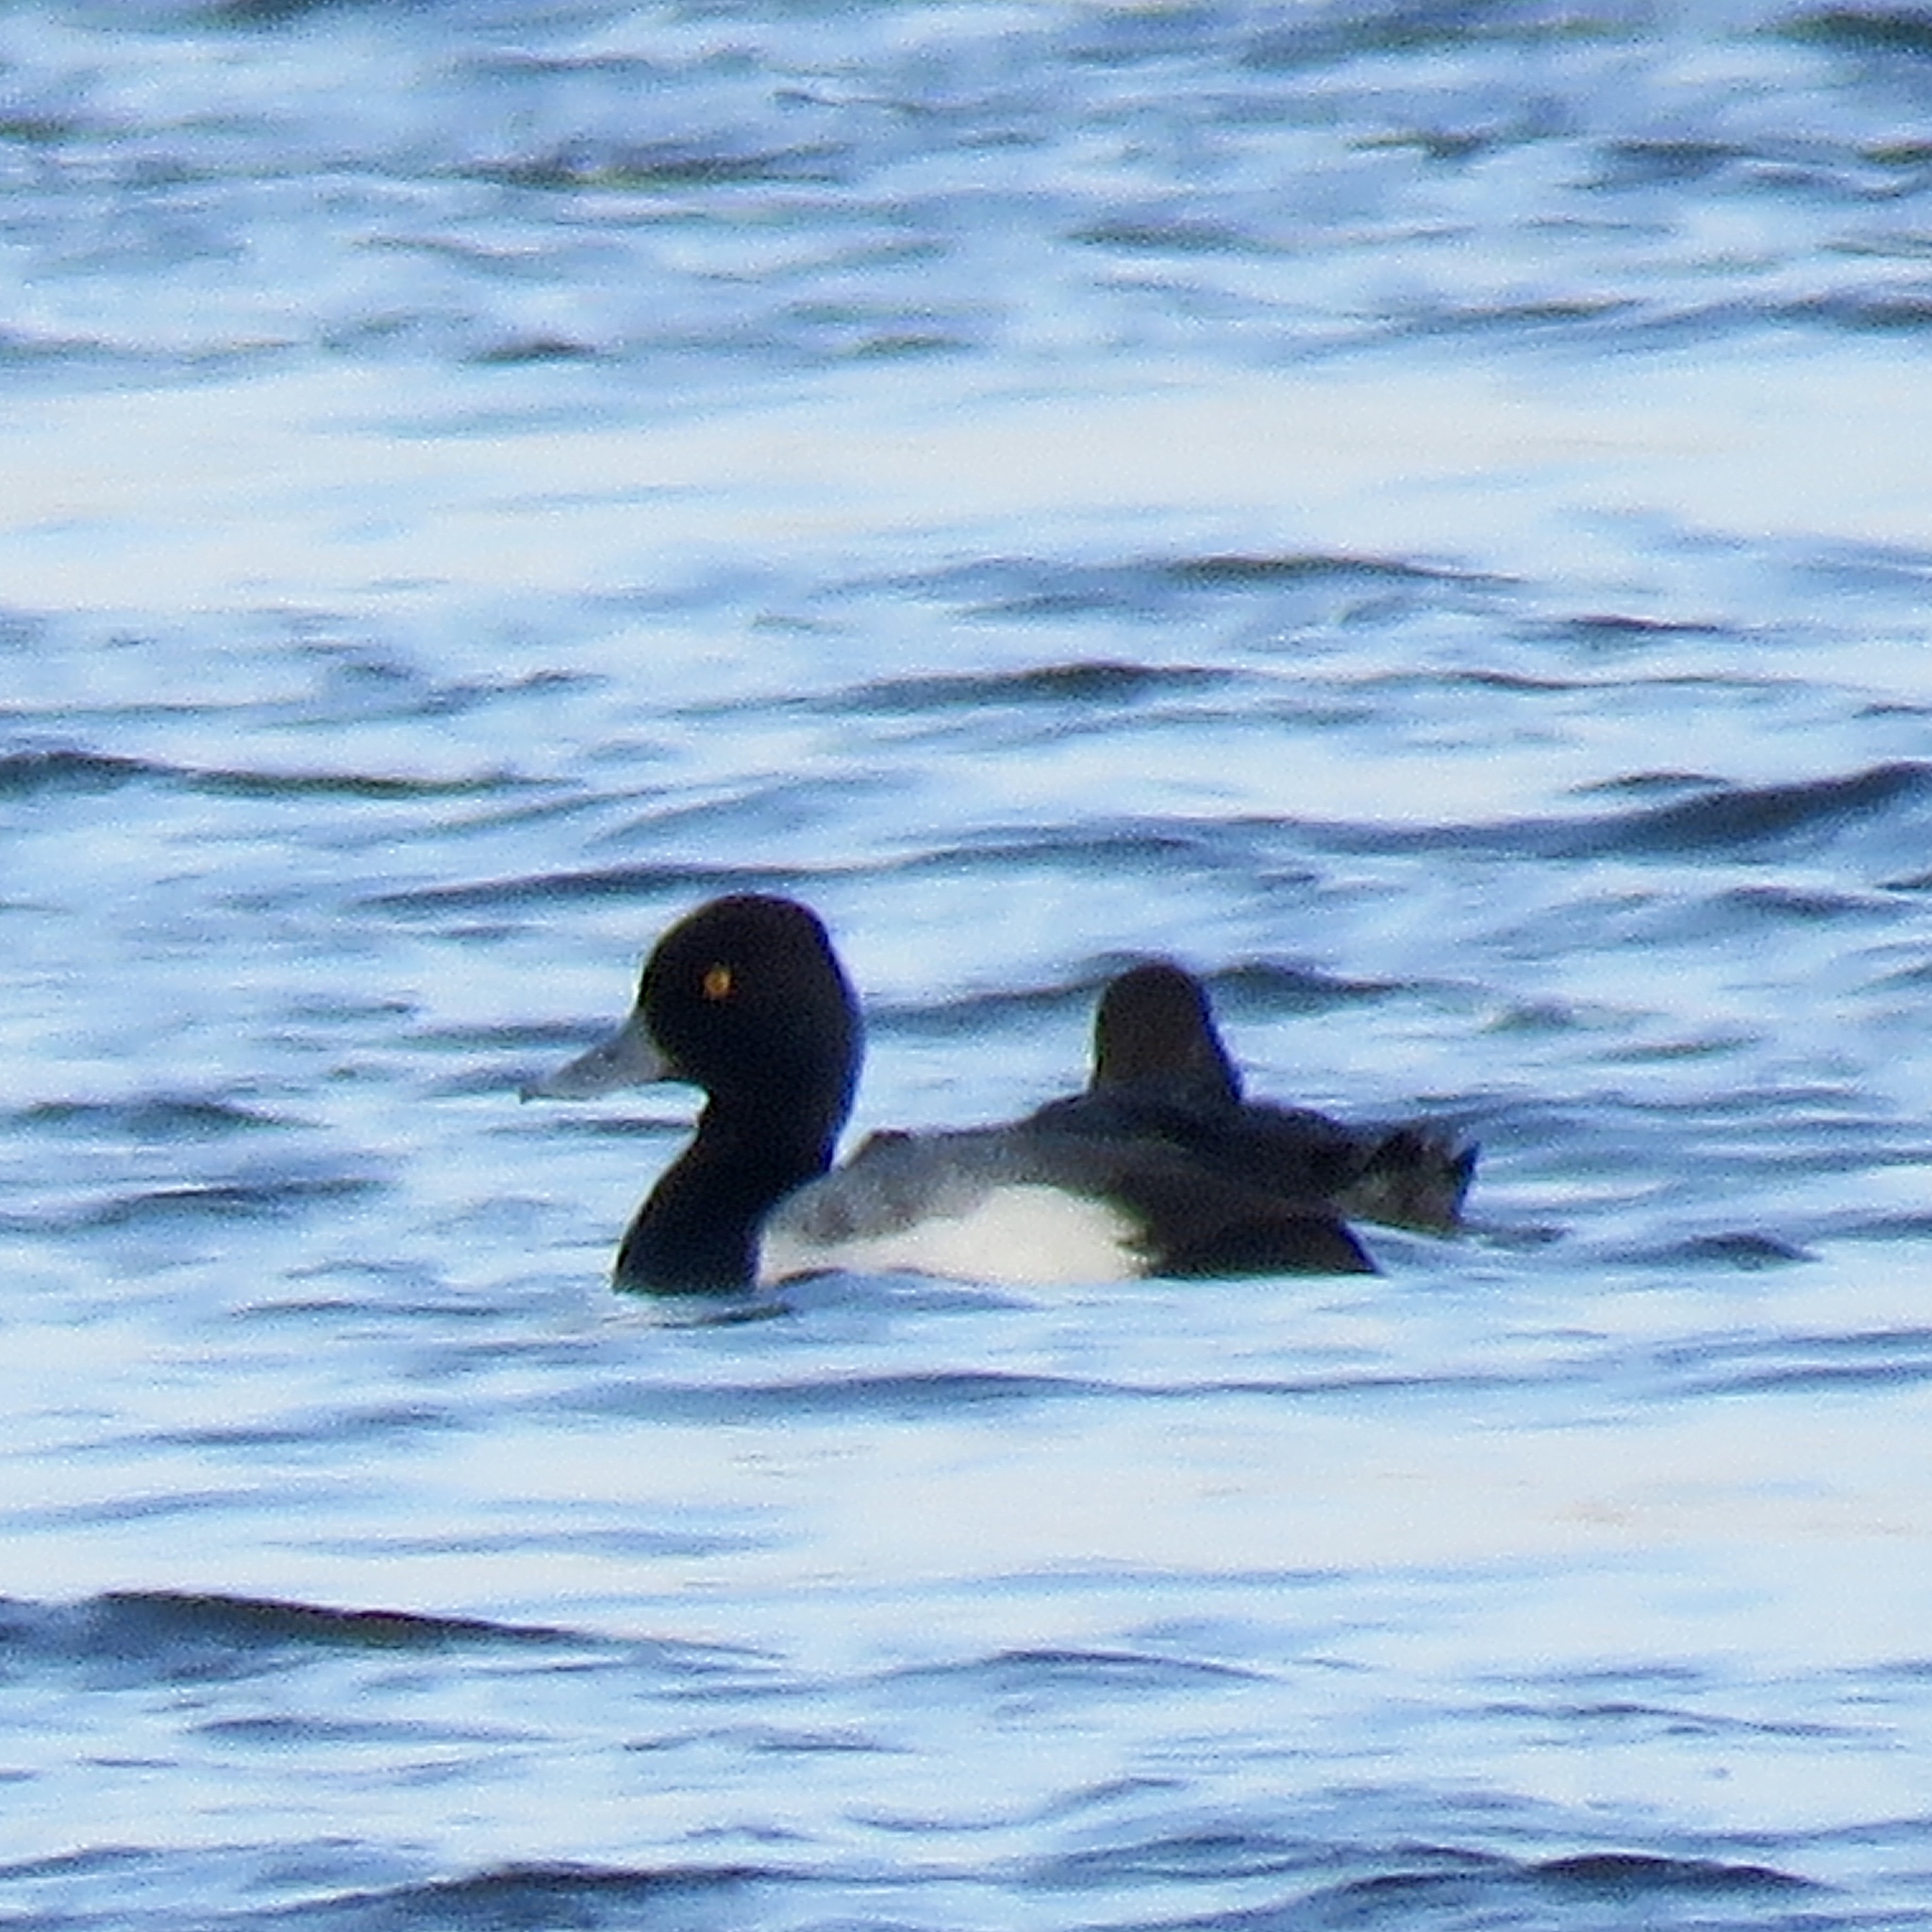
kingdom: Animalia
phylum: Chordata
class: Aves
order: Anseriformes
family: Anatidae
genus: Aythya
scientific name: Aythya affinis
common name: Lesser scaup
